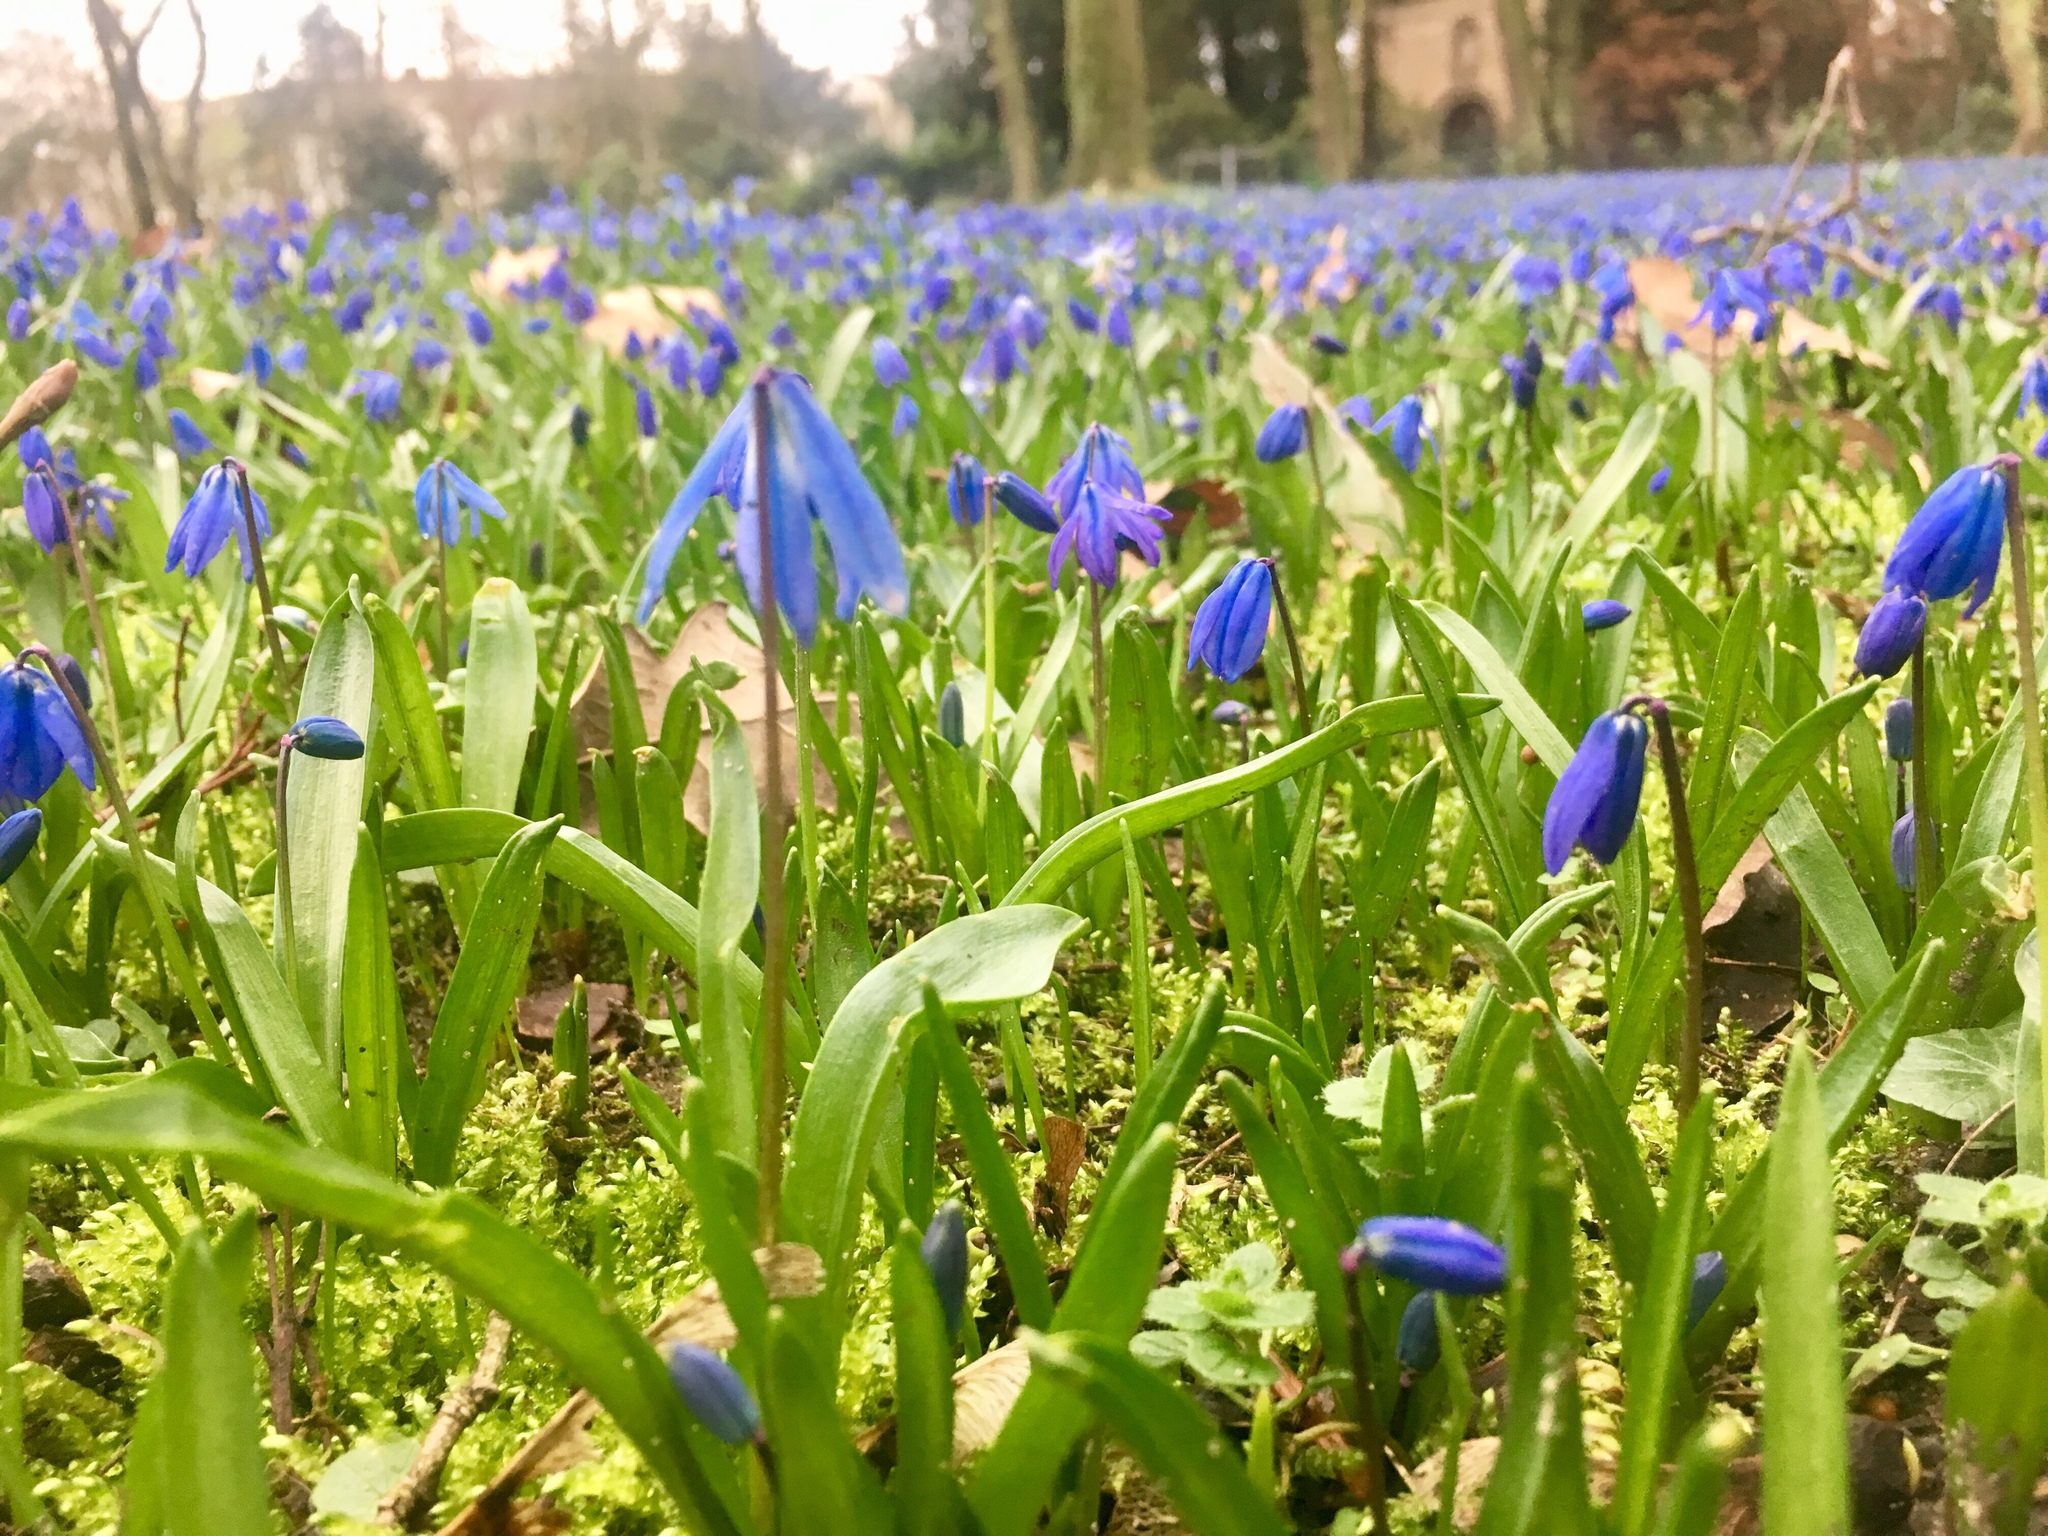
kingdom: Plantae
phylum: Tracheophyta
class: Liliopsida
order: Asparagales
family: Asparagaceae
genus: Scilla
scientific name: Scilla siberica
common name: Siberian squill
